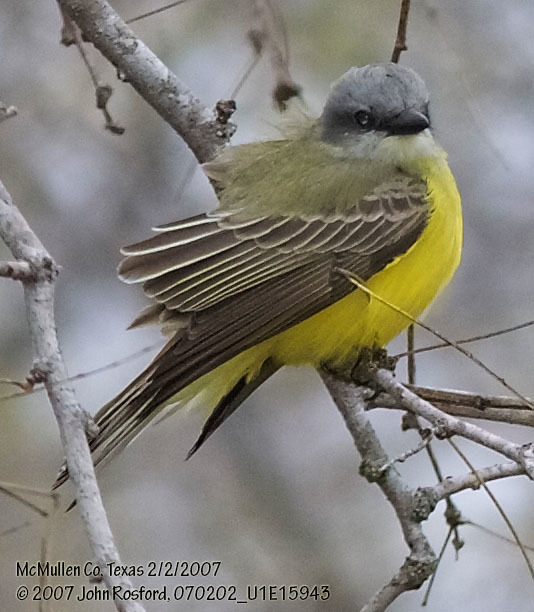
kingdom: Animalia
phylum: Chordata
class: Aves
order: Passeriformes
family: Tyrannidae
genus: Tyrannus
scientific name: Tyrannus couchii
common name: Couch's kingbird
